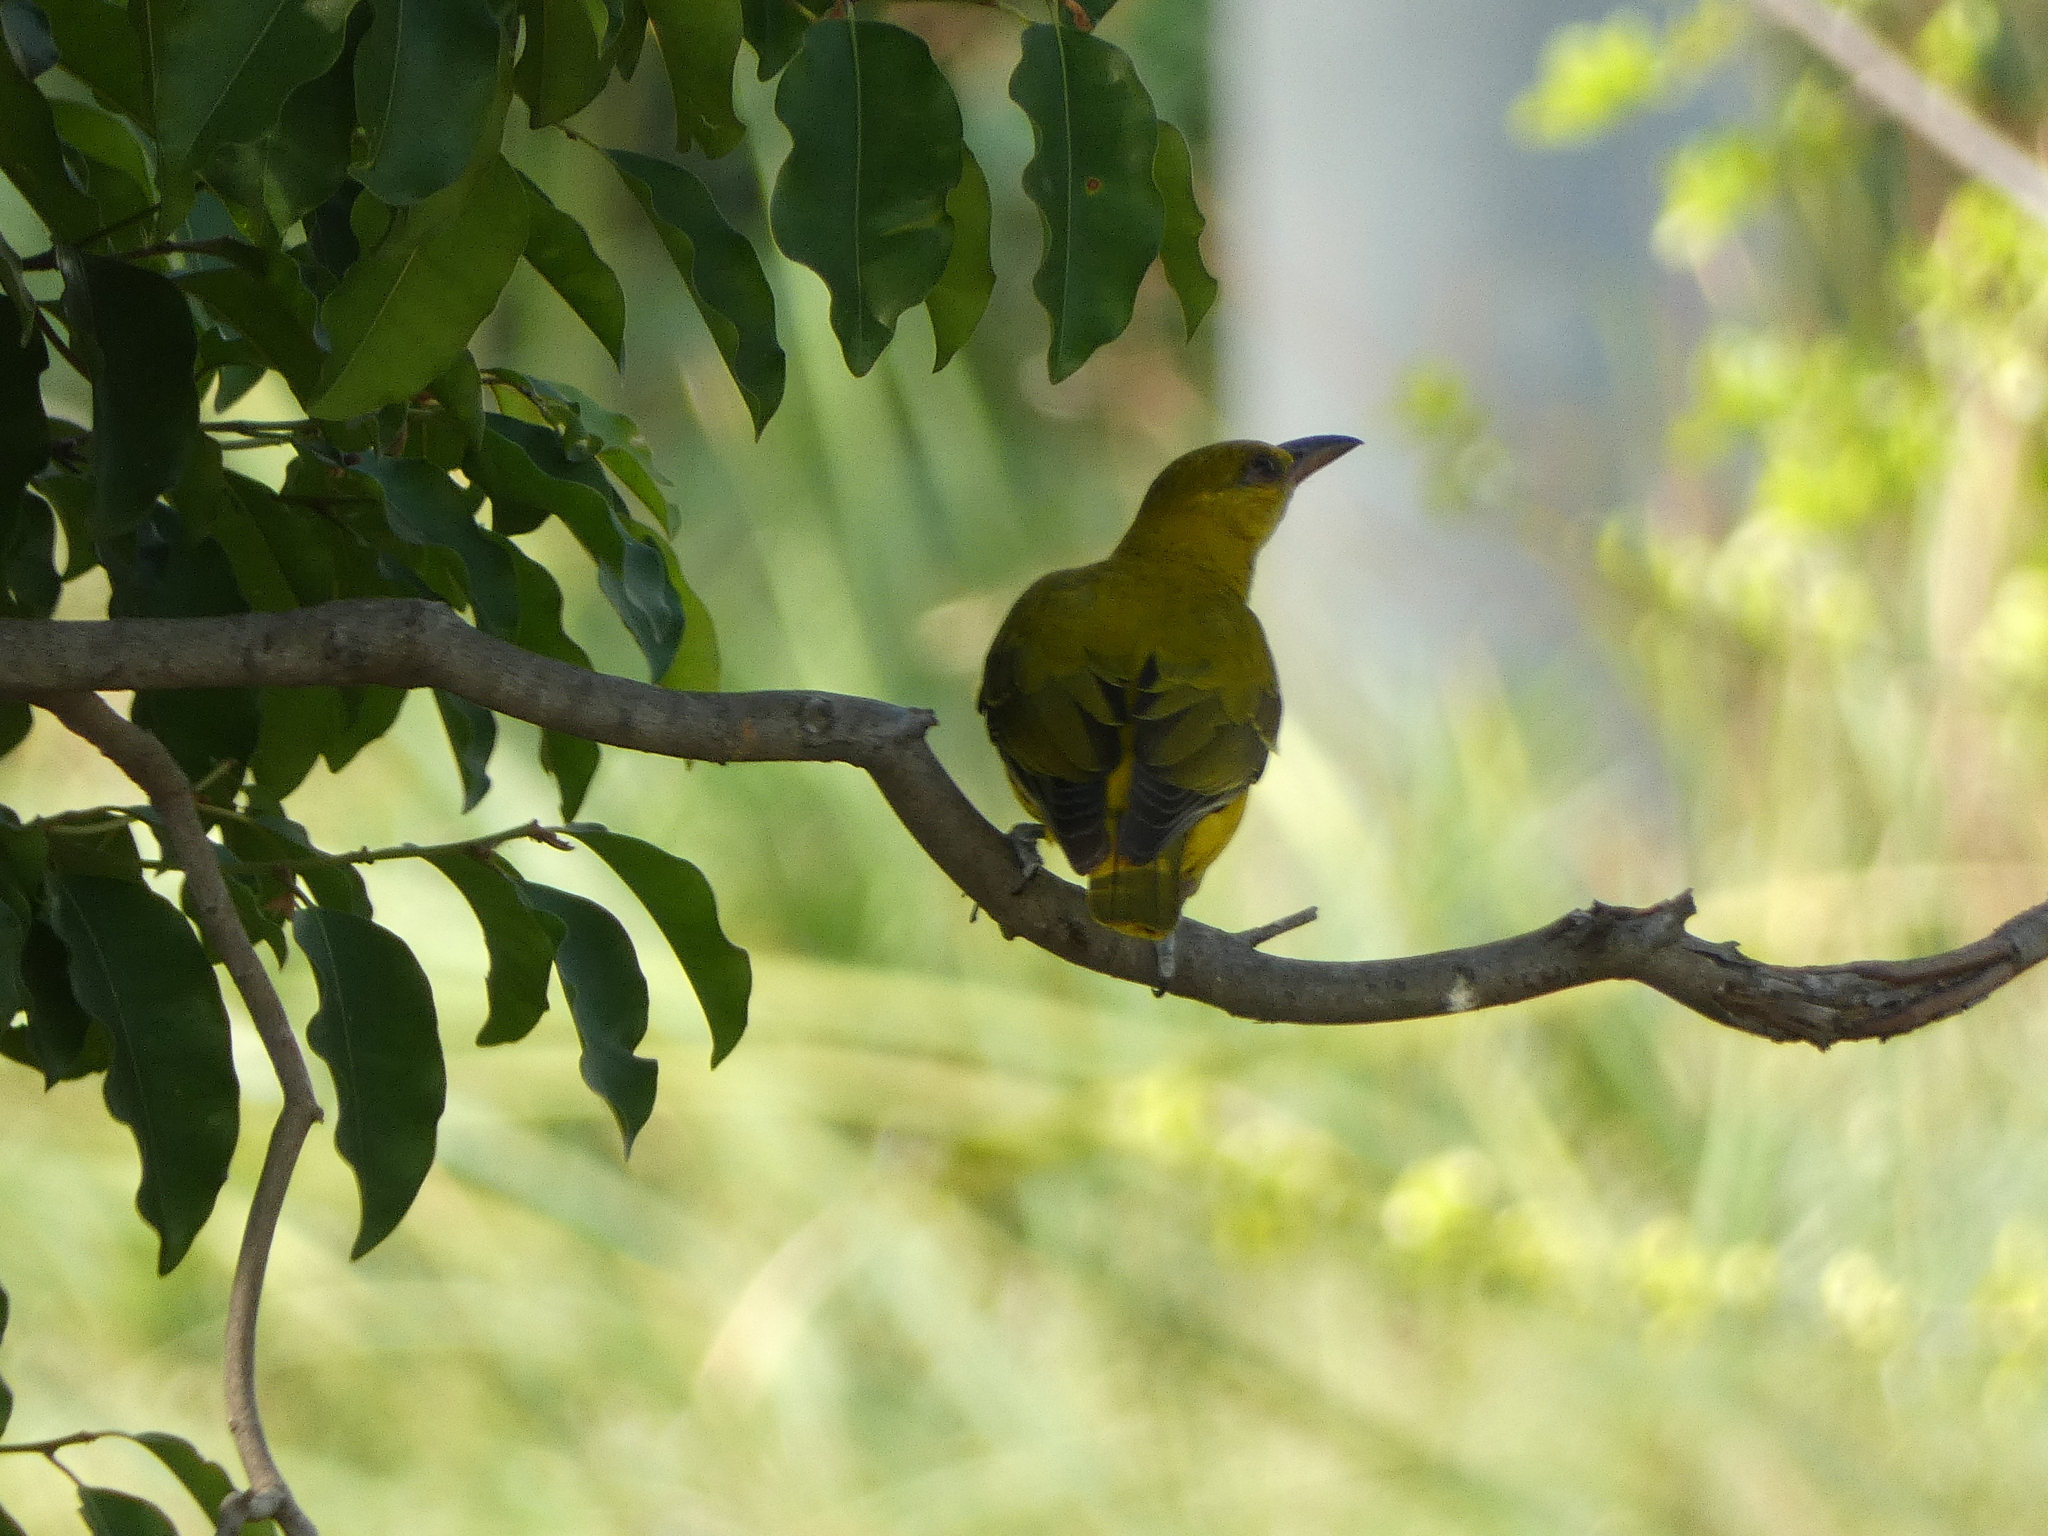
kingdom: Animalia
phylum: Chordata
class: Aves
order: Passeriformes
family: Oriolidae
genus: Oriolus
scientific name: Oriolus chinensis
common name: Black-naped oriole
